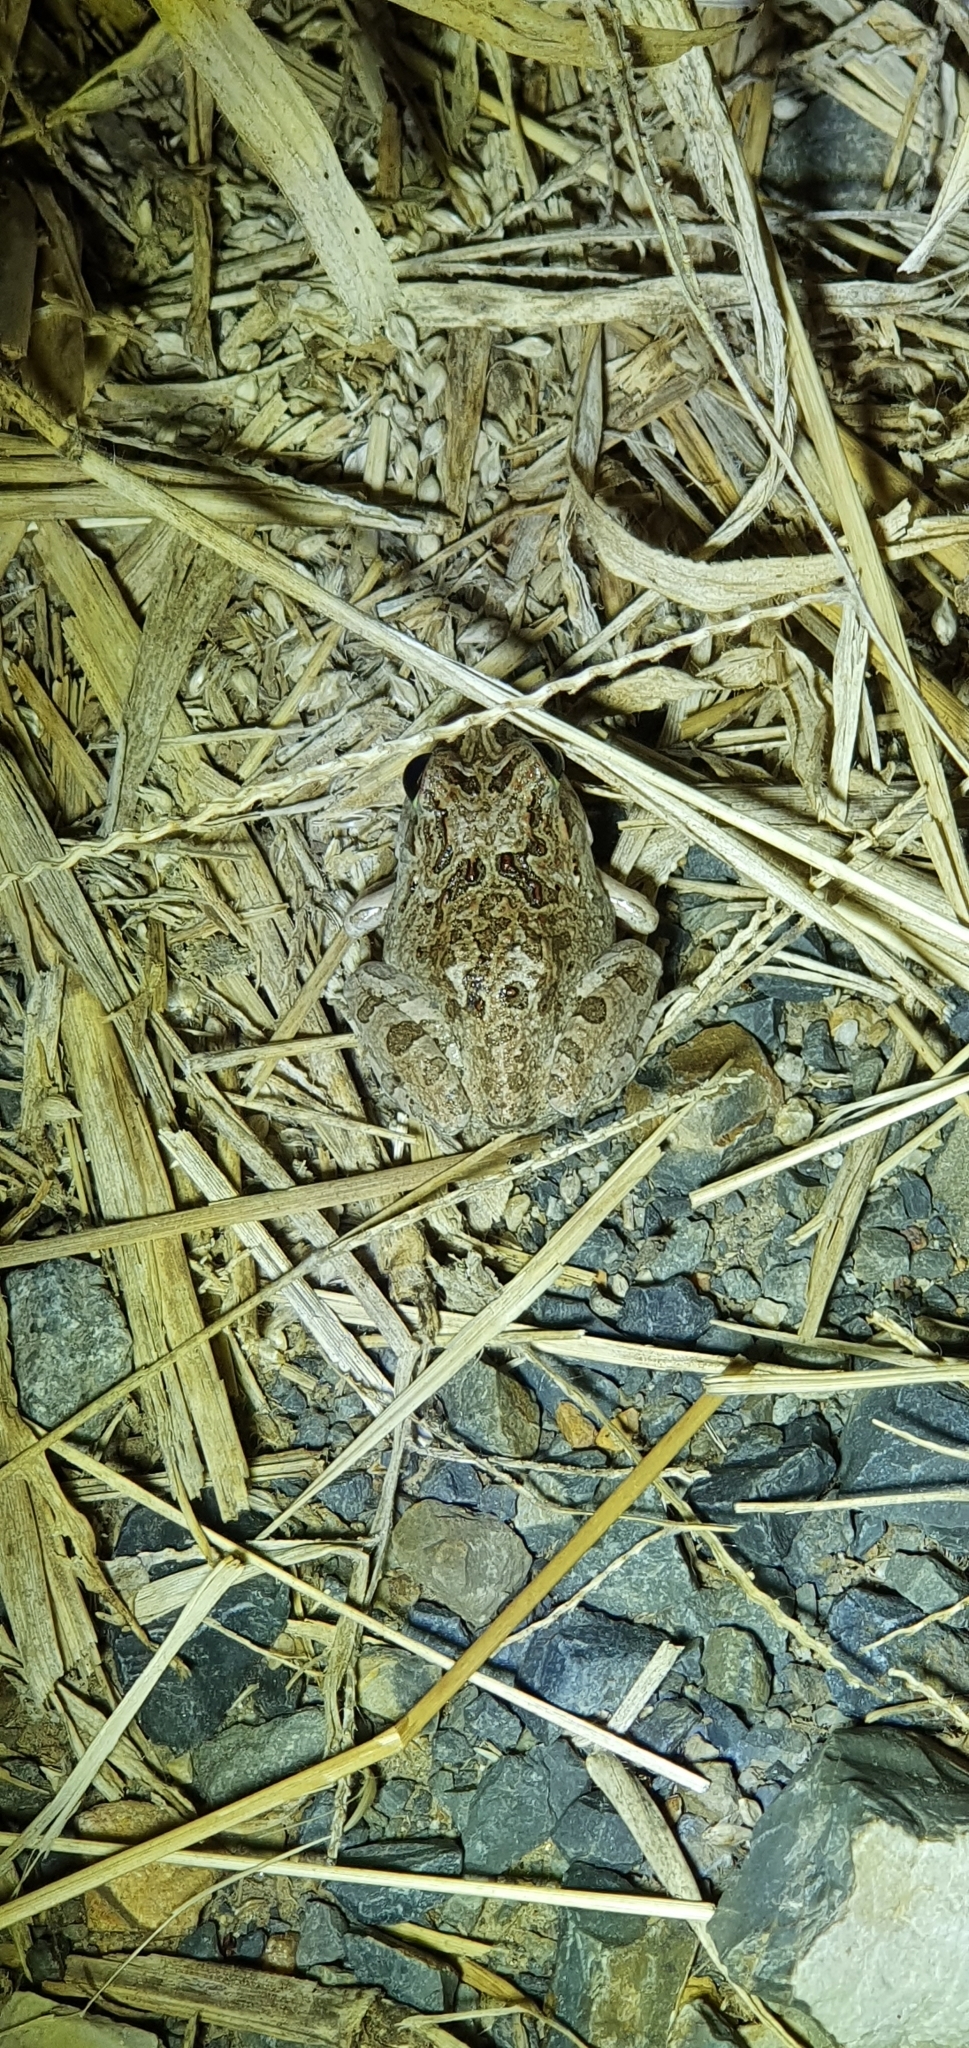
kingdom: Animalia
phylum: Chordata
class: Amphibia
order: Anura
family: Limnodynastidae
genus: Platyplectrum
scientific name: Platyplectrum ornatum
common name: Ornate burrowing frog
